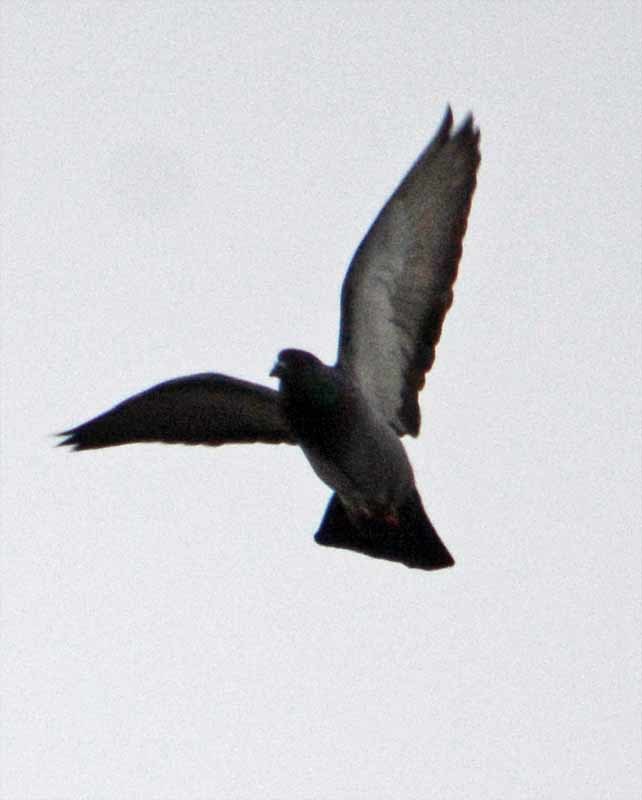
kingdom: Animalia
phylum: Chordata
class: Aves
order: Columbiformes
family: Columbidae
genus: Columba
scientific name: Columba livia
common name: Rock pigeon
